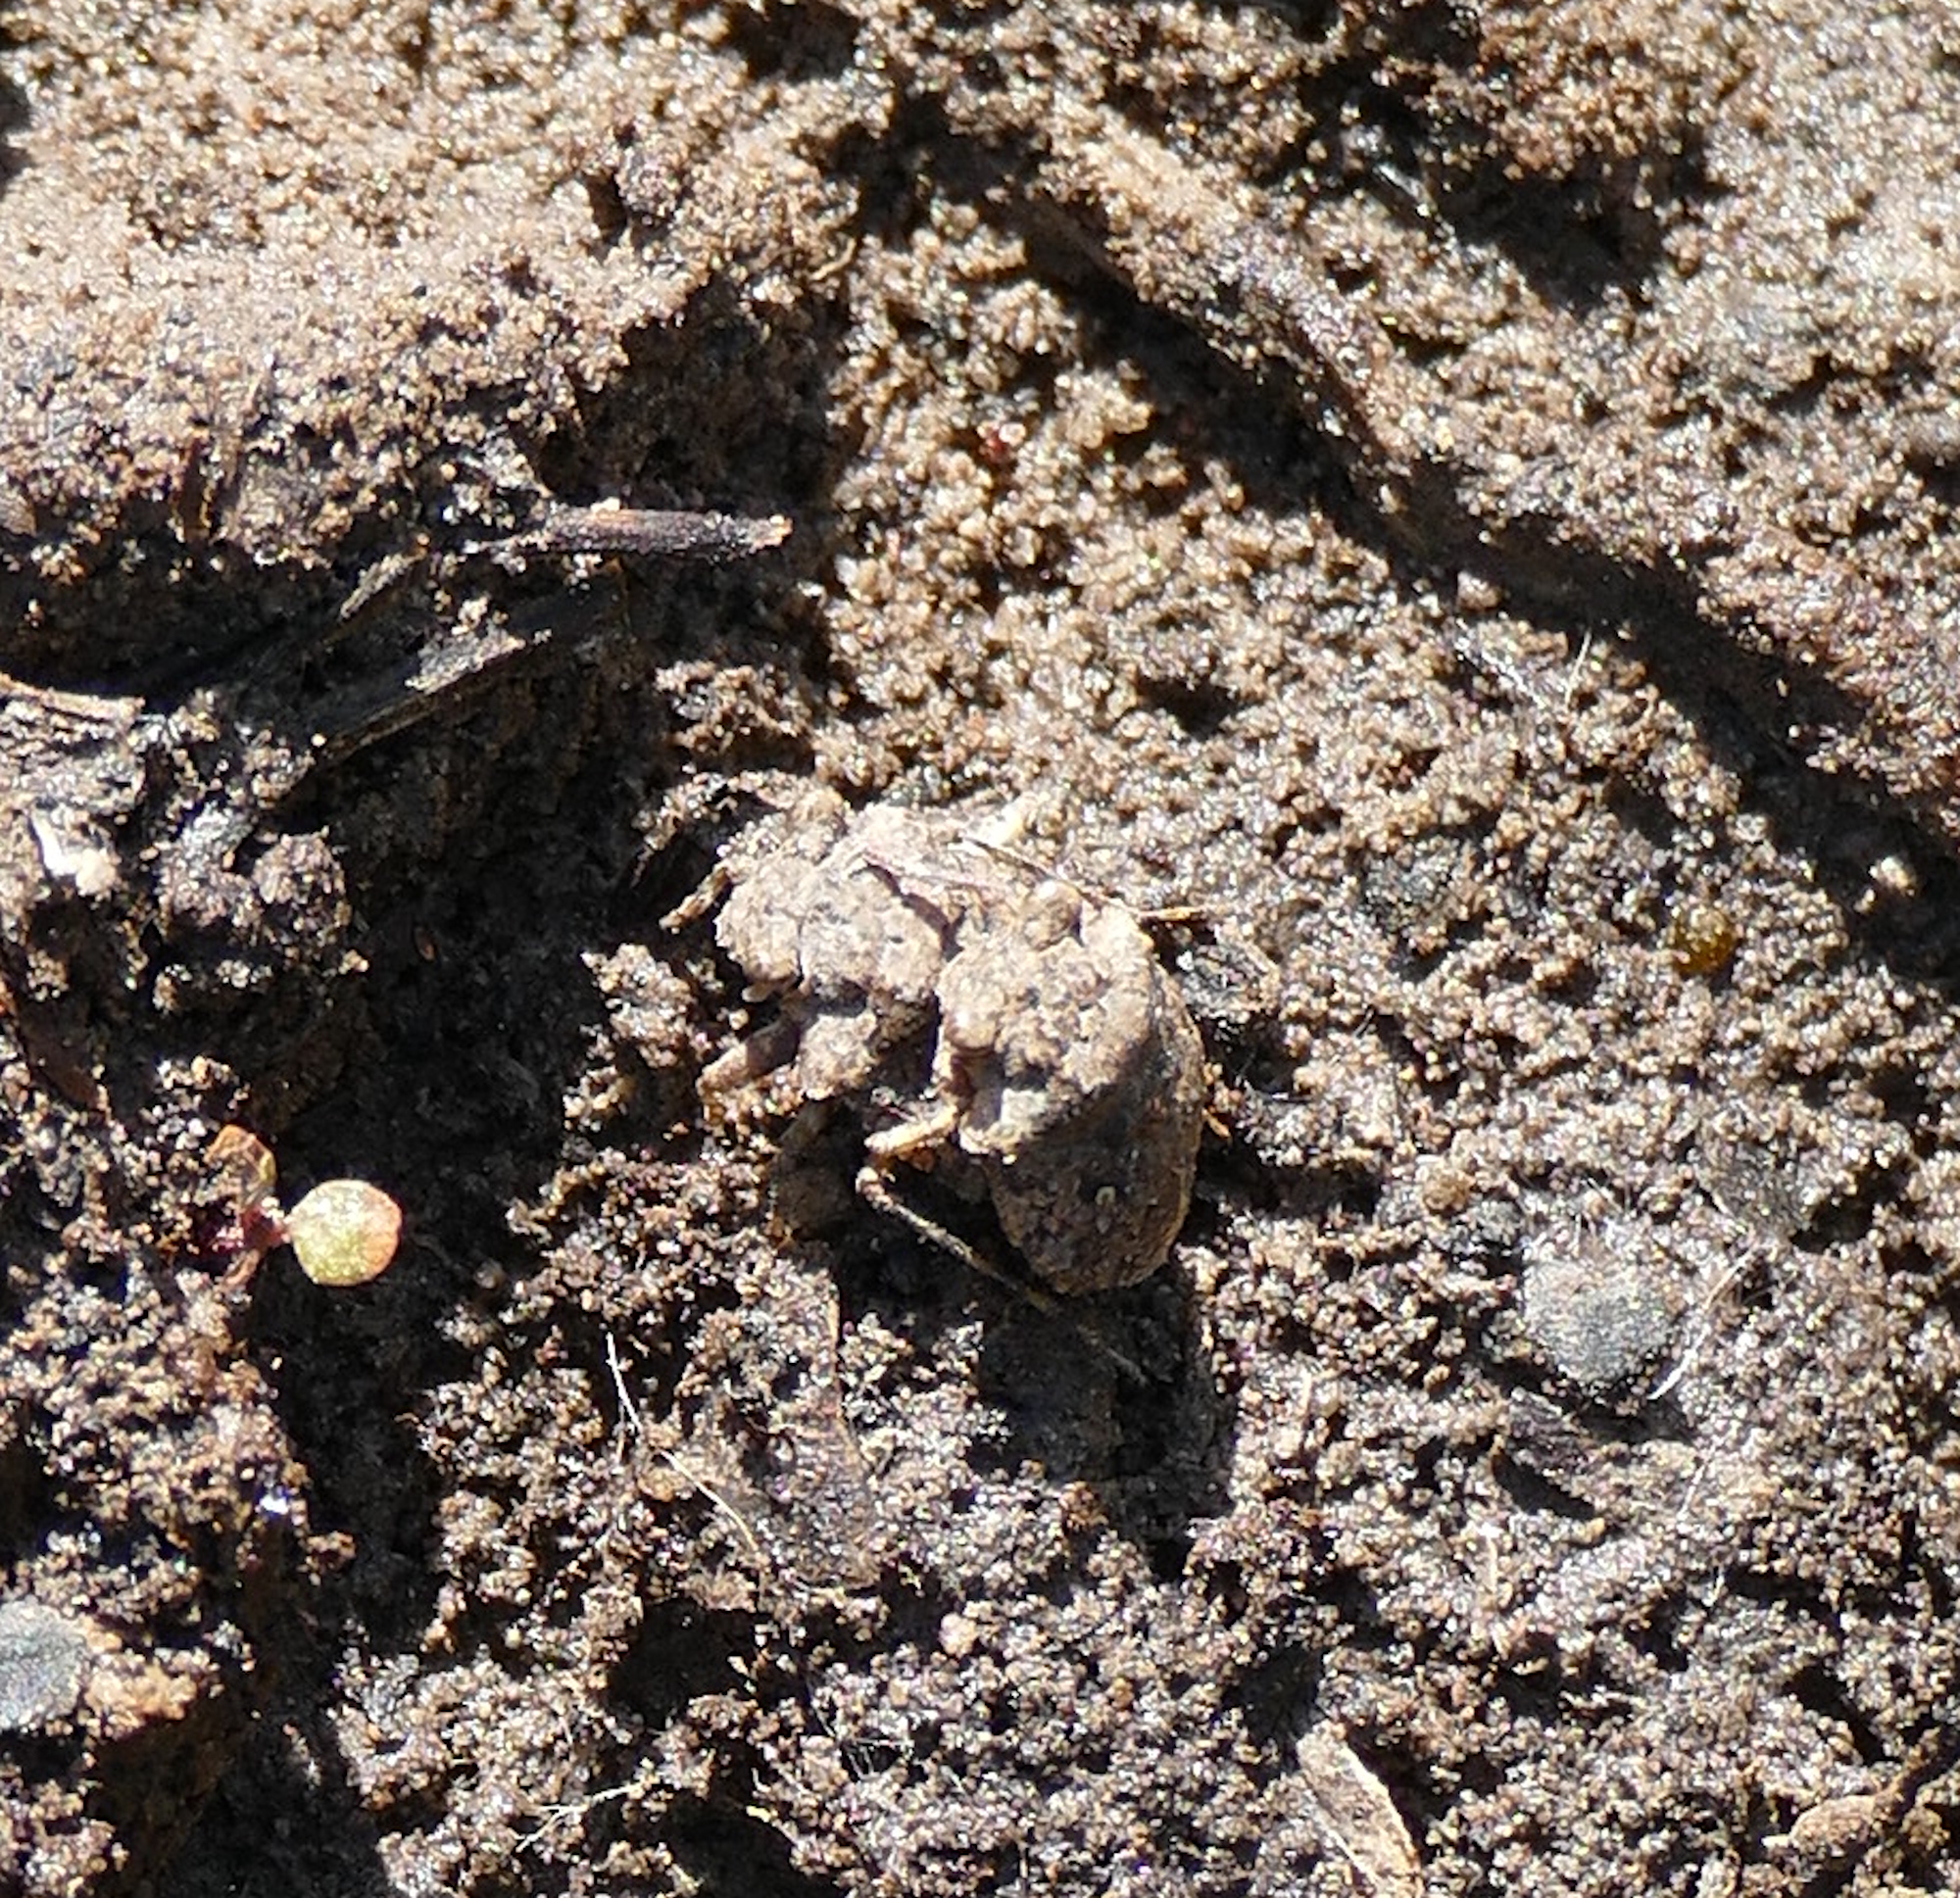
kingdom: Animalia
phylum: Arthropoda
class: Insecta
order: Hemiptera
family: Gelastocoridae
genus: Gelastocoris
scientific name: Gelastocoris oculatus
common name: Toad bug
